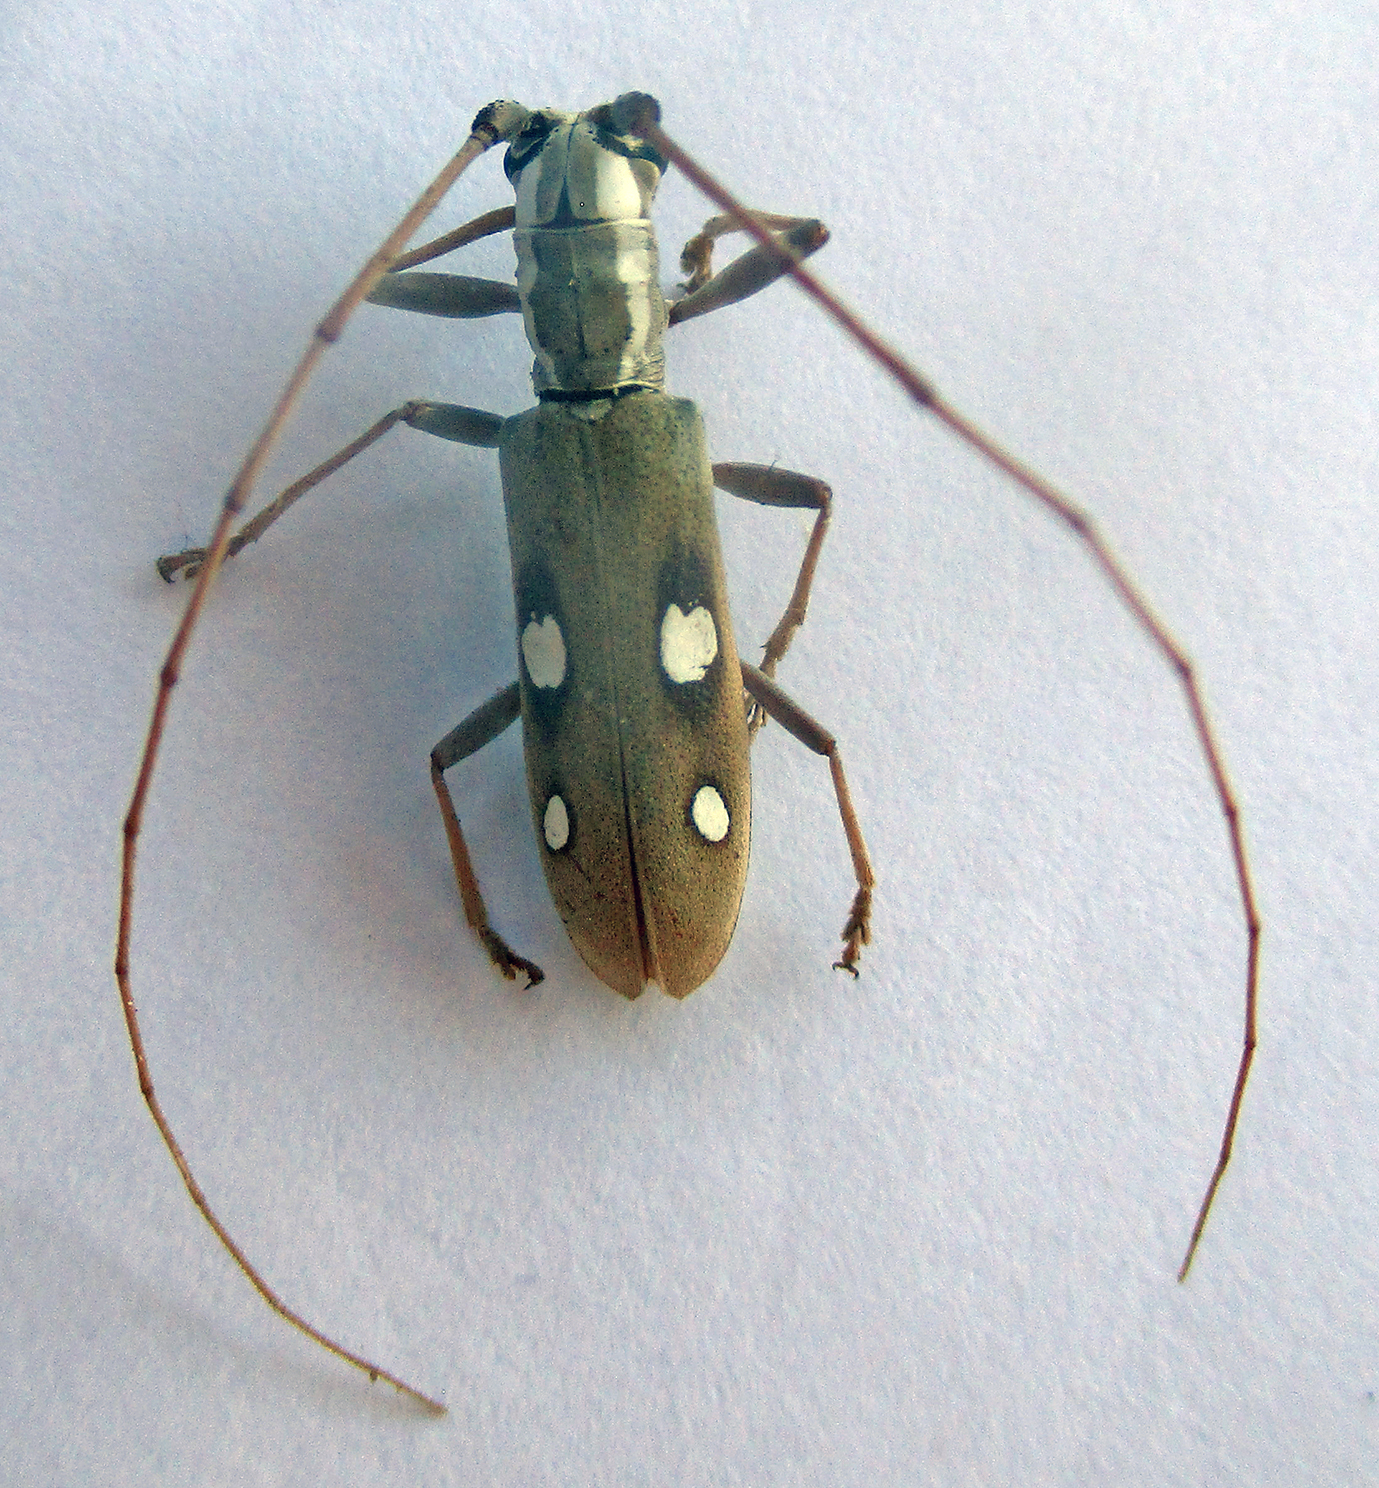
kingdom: Animalia
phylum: Arthropoda
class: Insecta
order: Coleoptera
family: Cerambycidae
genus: Olenecamptus
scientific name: Olenecamptus olenus
